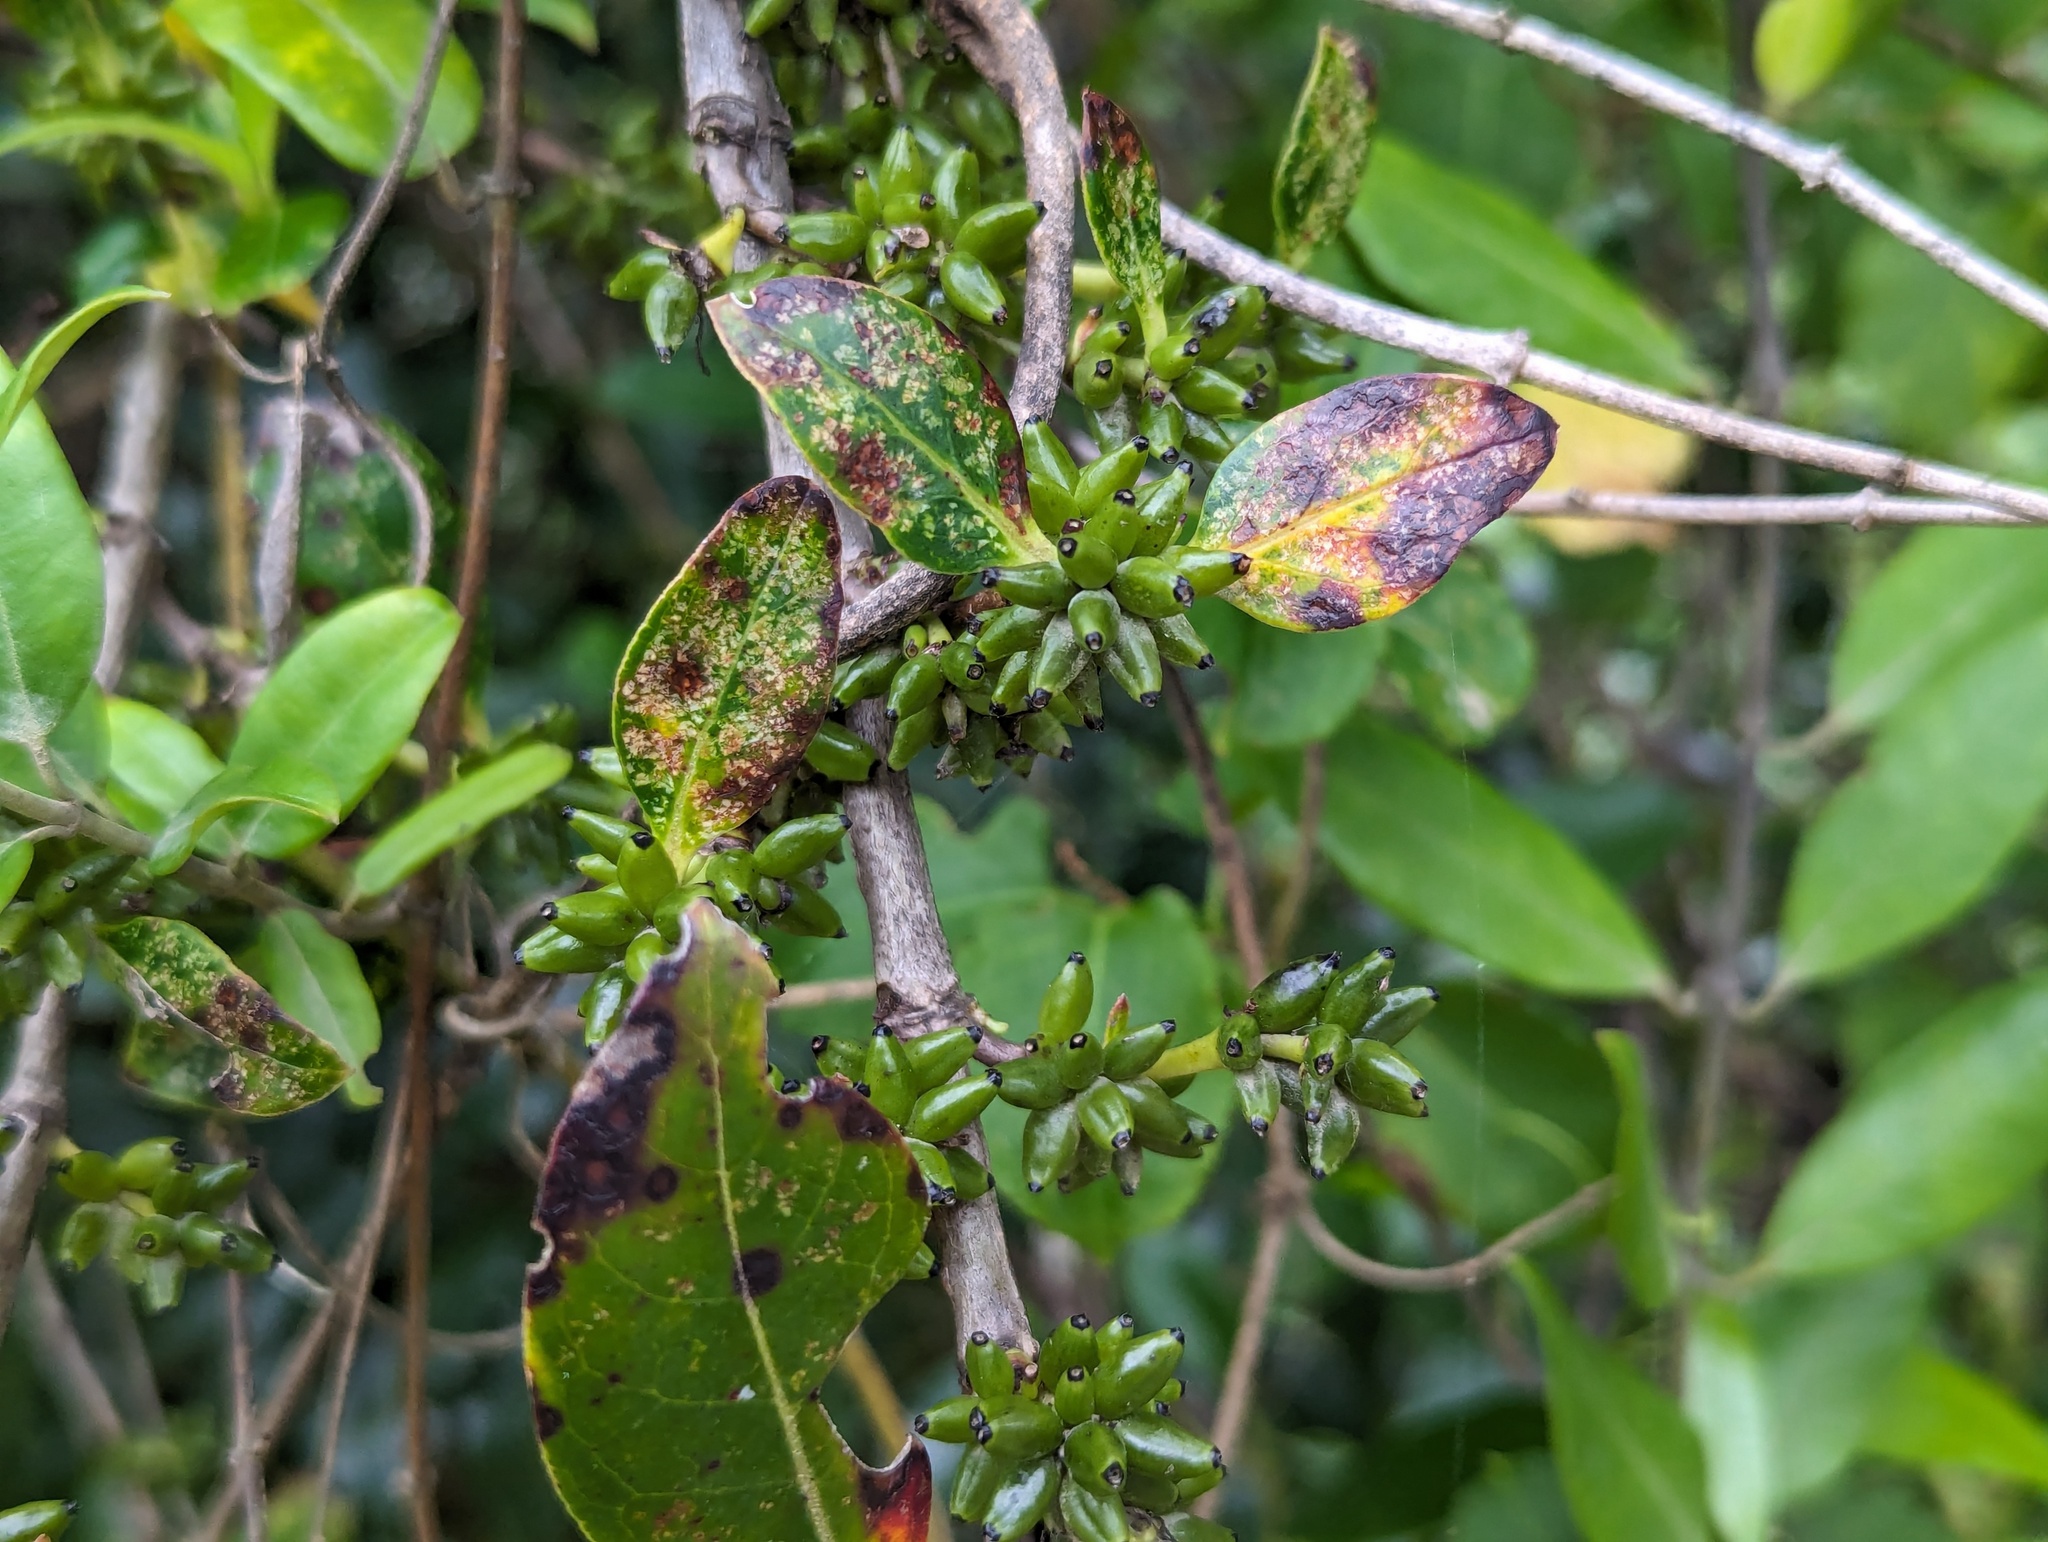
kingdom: Plantae
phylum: Tracheophyta
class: Magnoliopsida
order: Gentianales
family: Rubiaceae
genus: Coprosma
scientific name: Coprosma robusta
